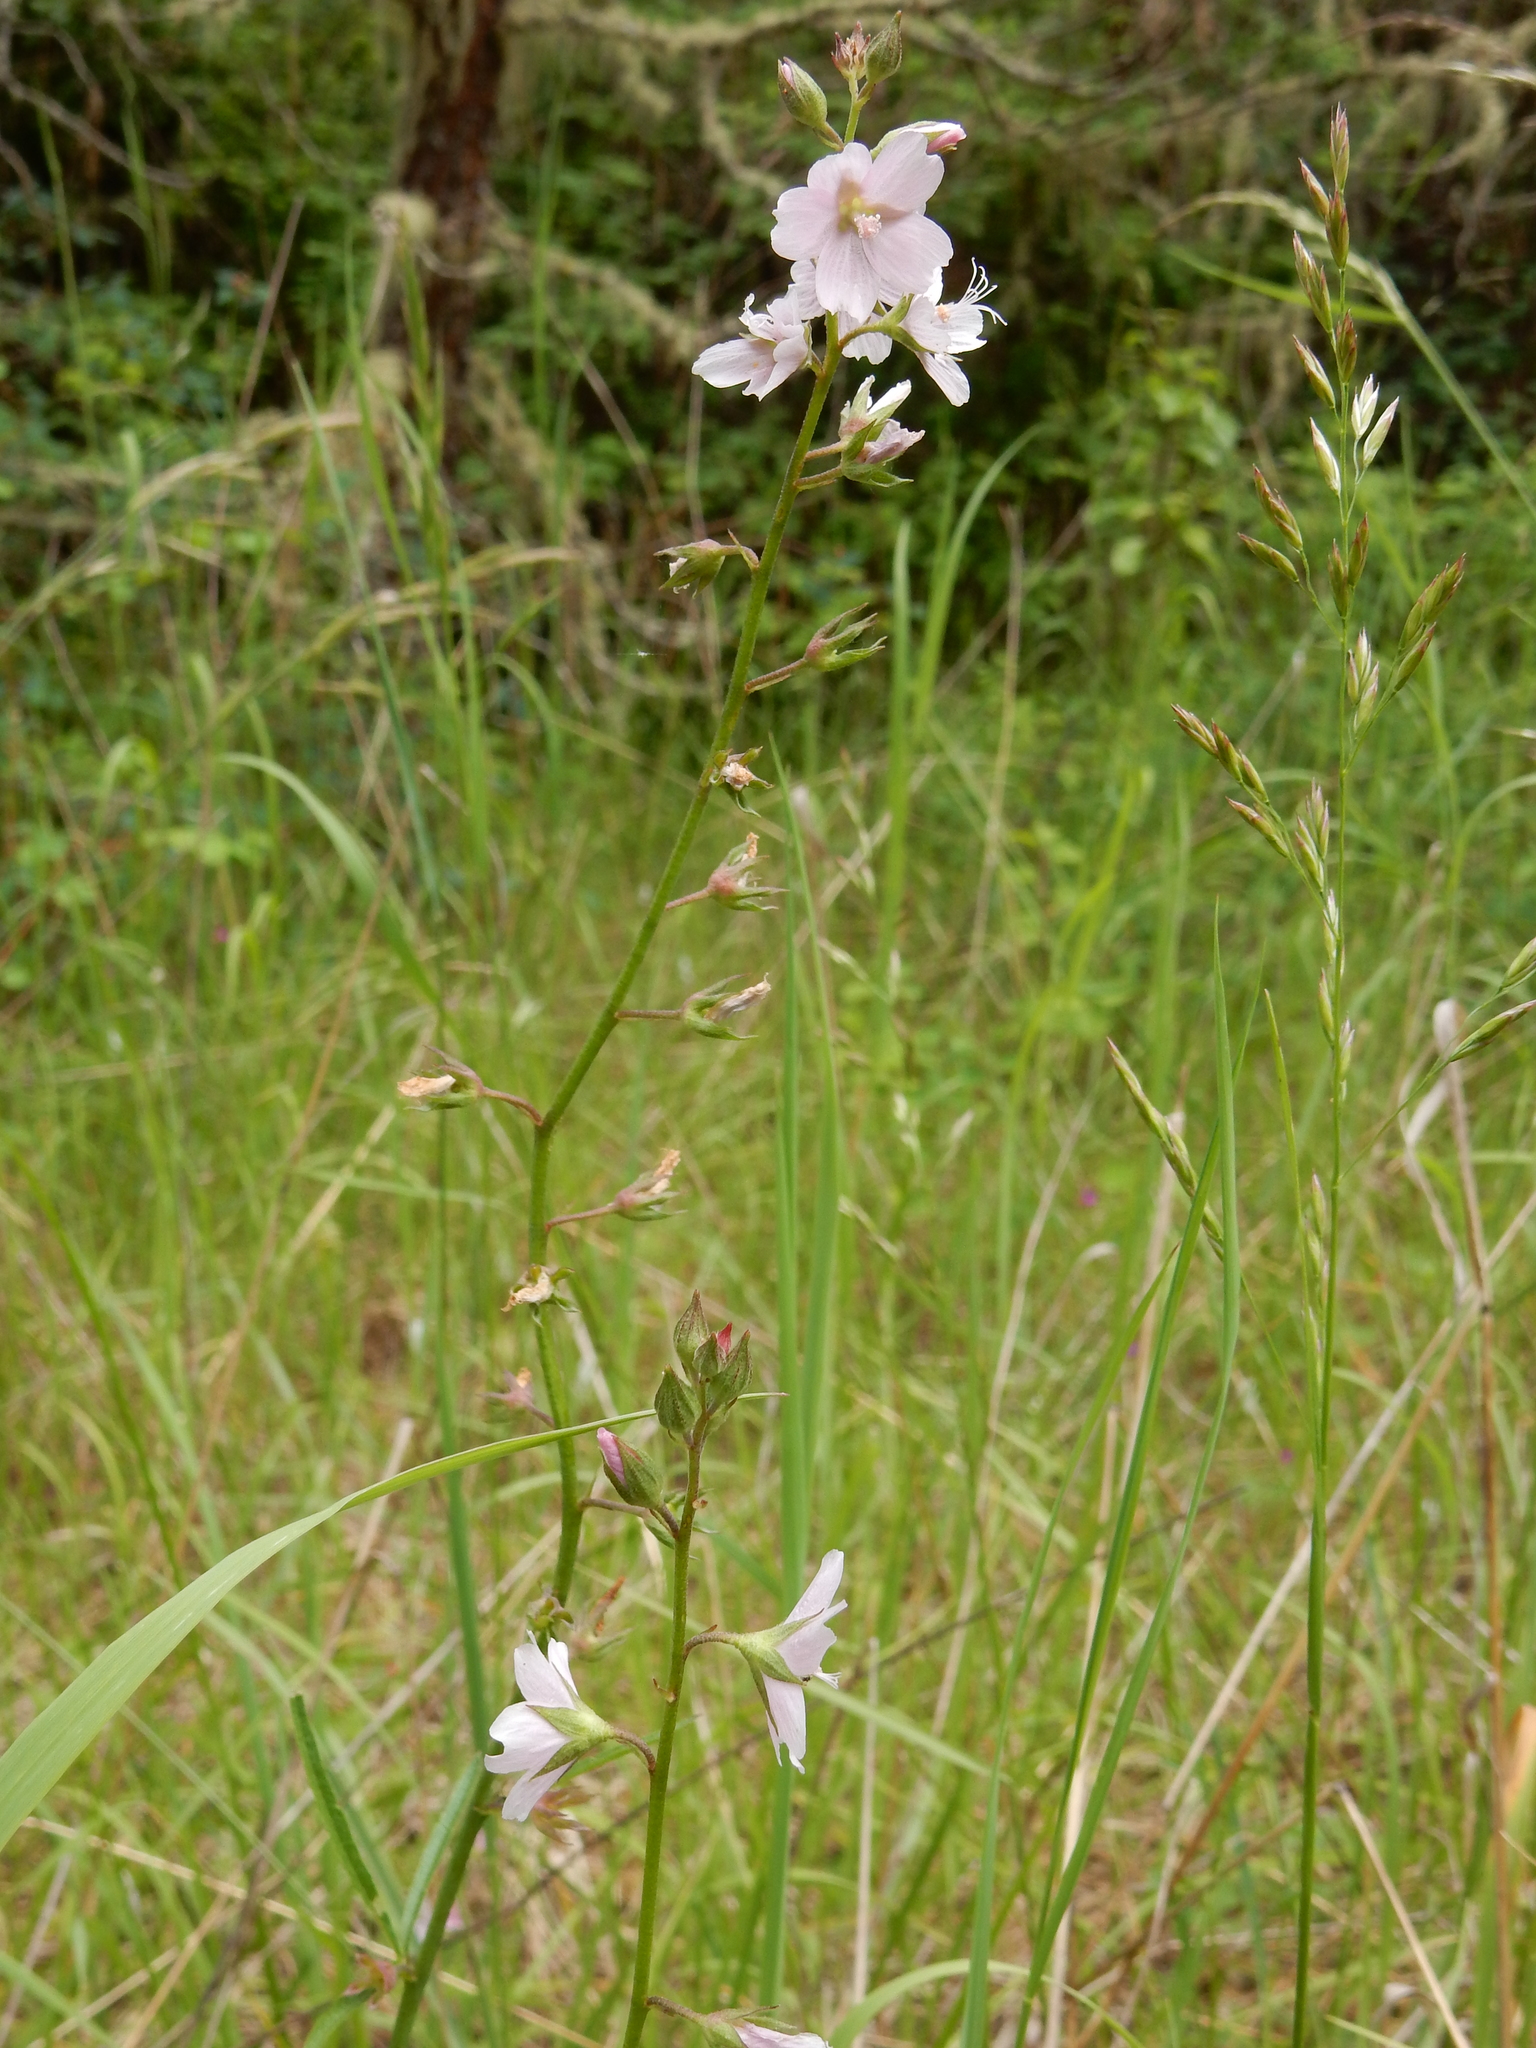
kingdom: Plantae
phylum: Tracheophyta
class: Magnoliopsida
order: Malvales
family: Malvaceae
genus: Sidalcea
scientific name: Sidalcea asprella
